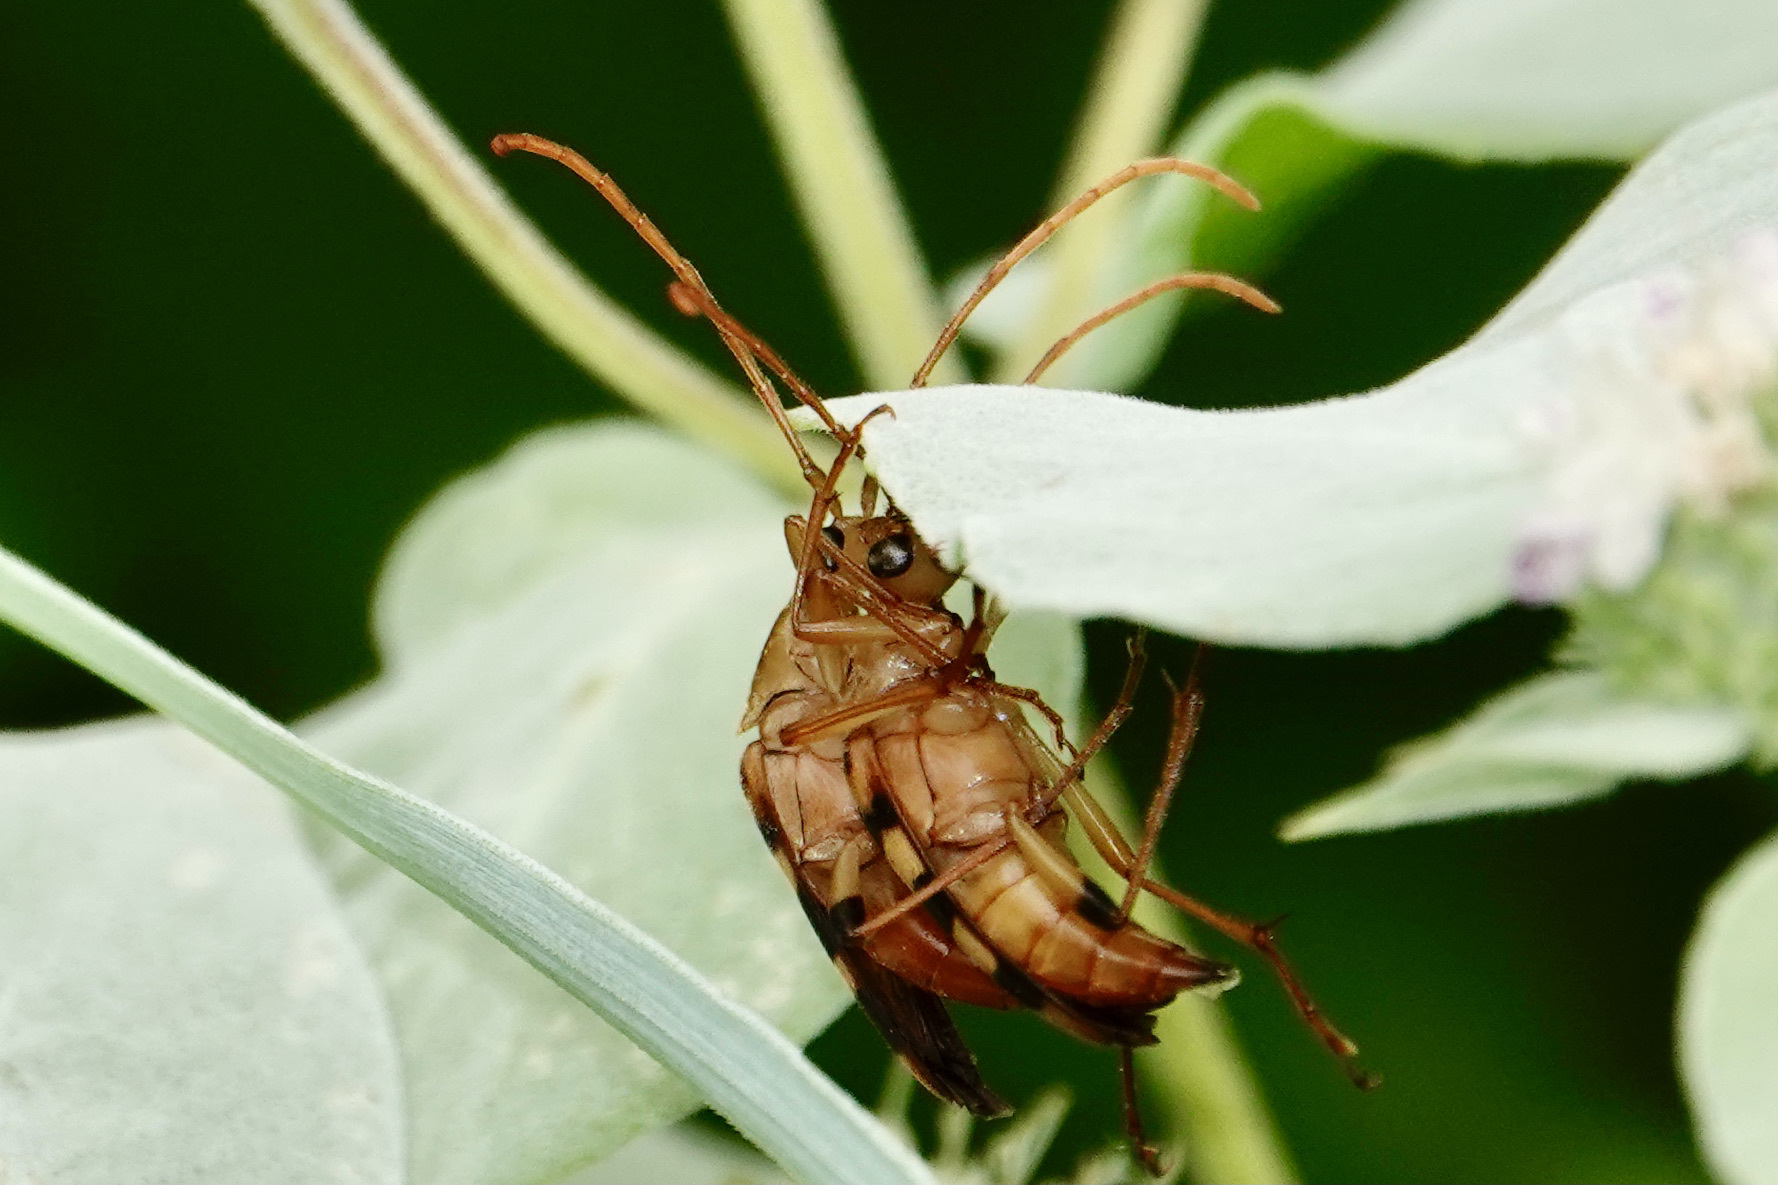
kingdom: Animalia
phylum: Arthropoda
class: Insecta
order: Coleoptera
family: Cerambycidae
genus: Strangalia
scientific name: Strangalia luteicornis
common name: Yellow-horned flower longhorn beetle
